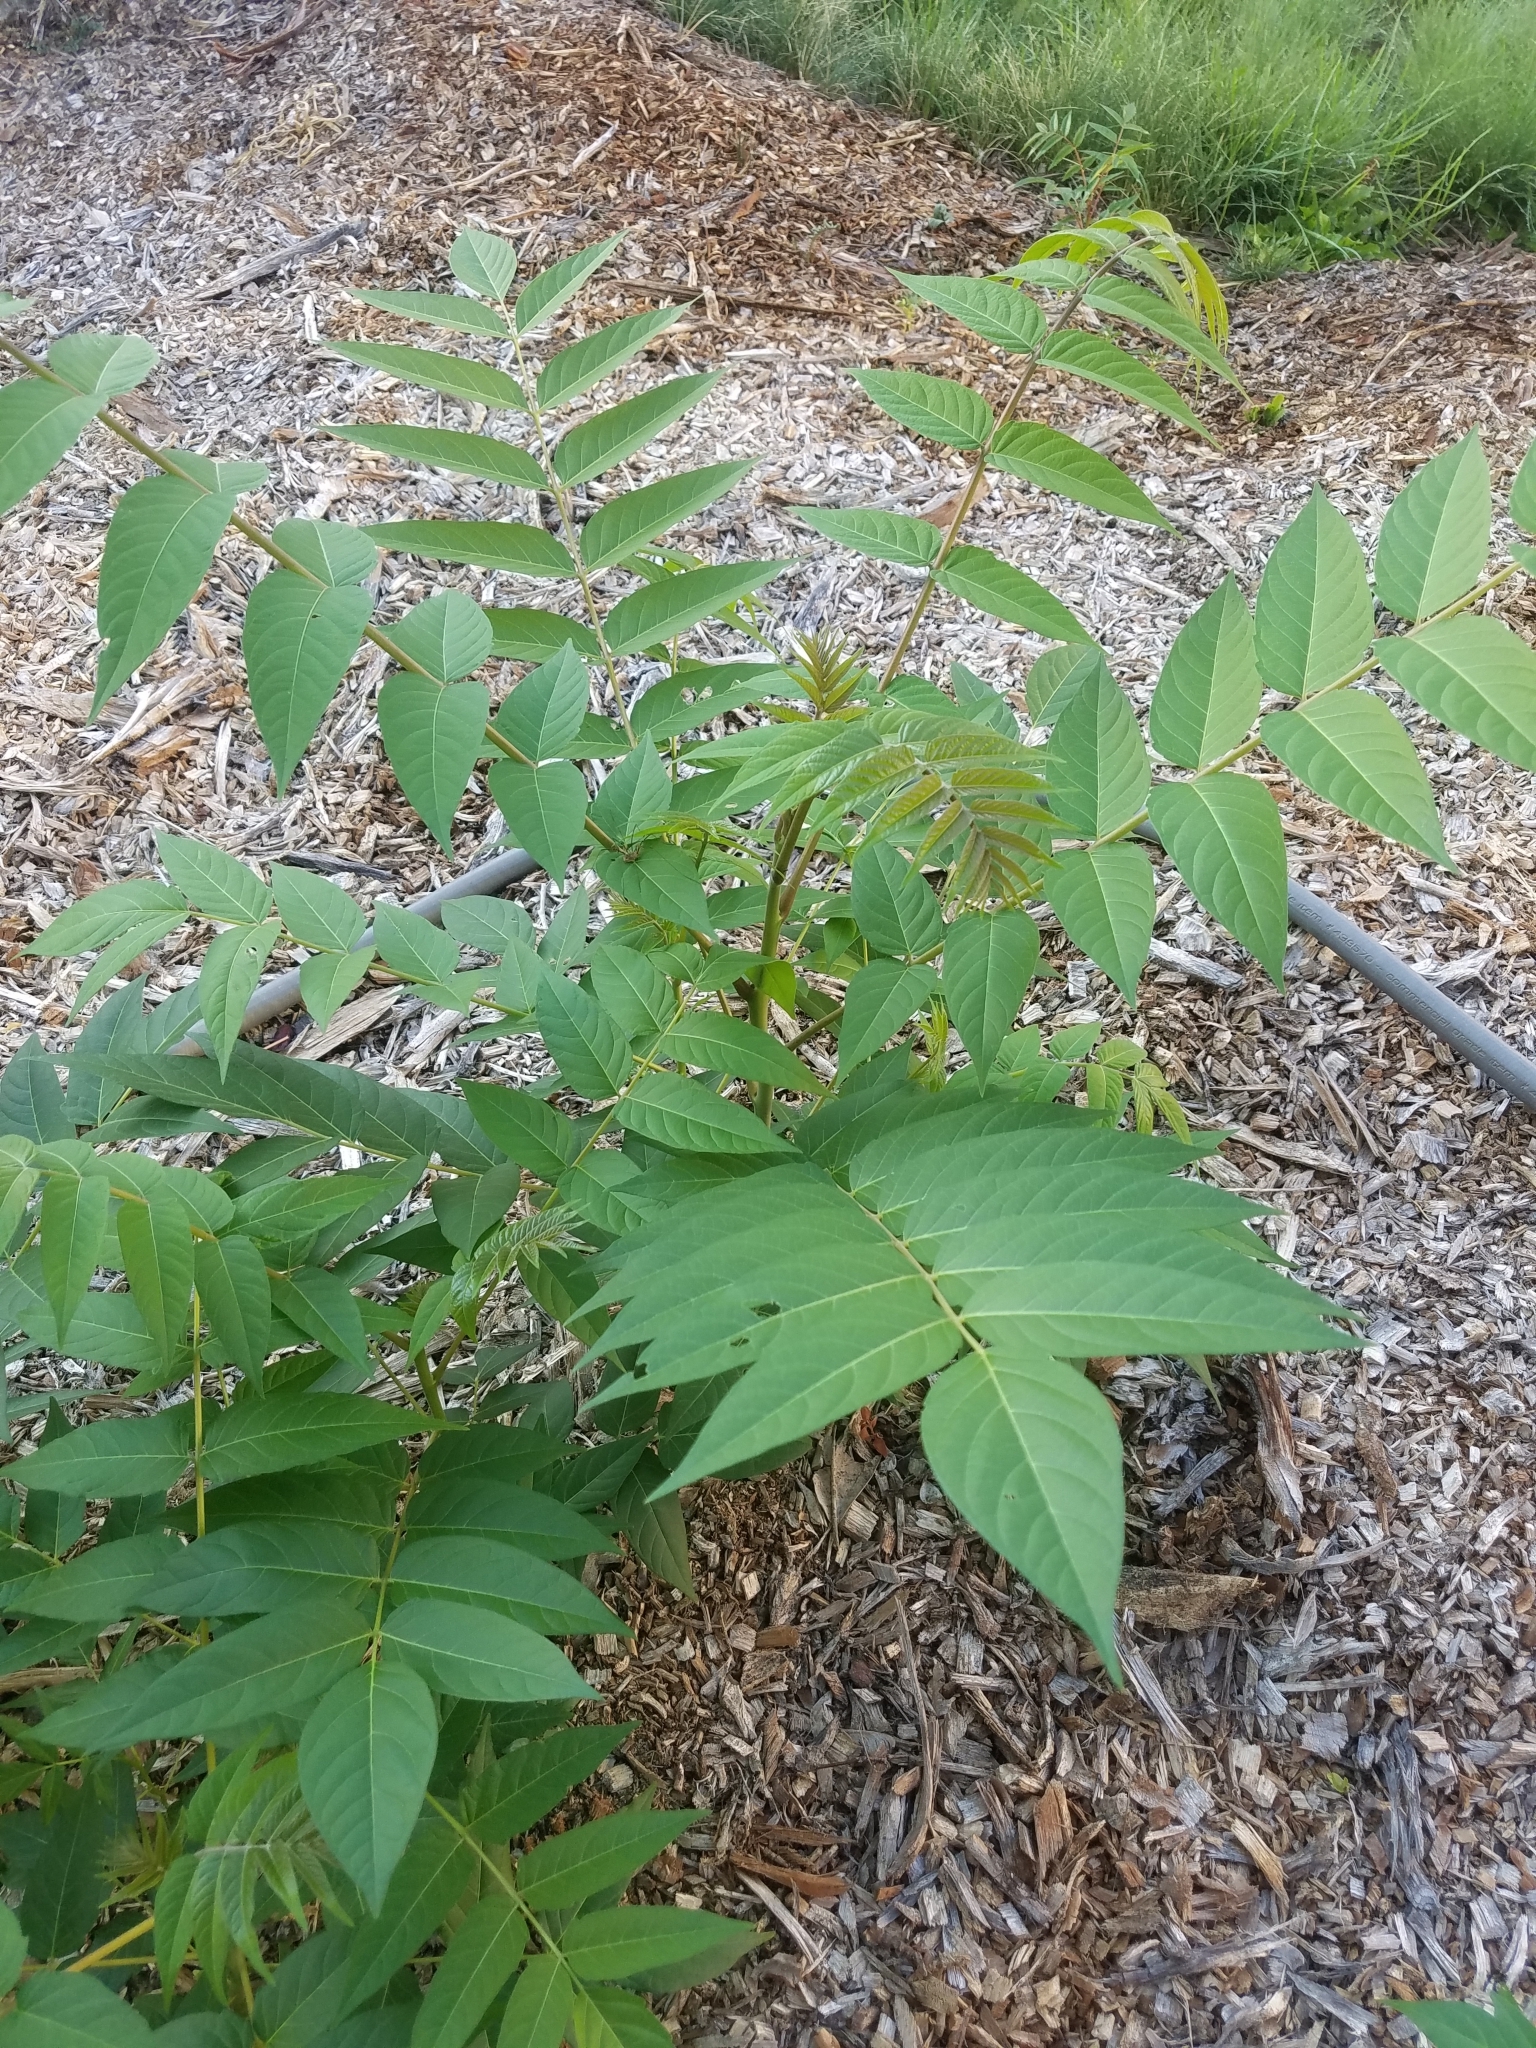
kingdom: Plantae
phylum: Tracheophyta
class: Magnoliopsida
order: Sapindales
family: Simaroubaceae
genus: Ailanthus
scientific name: Ailanthus altissima
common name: Tree-of-heaven
